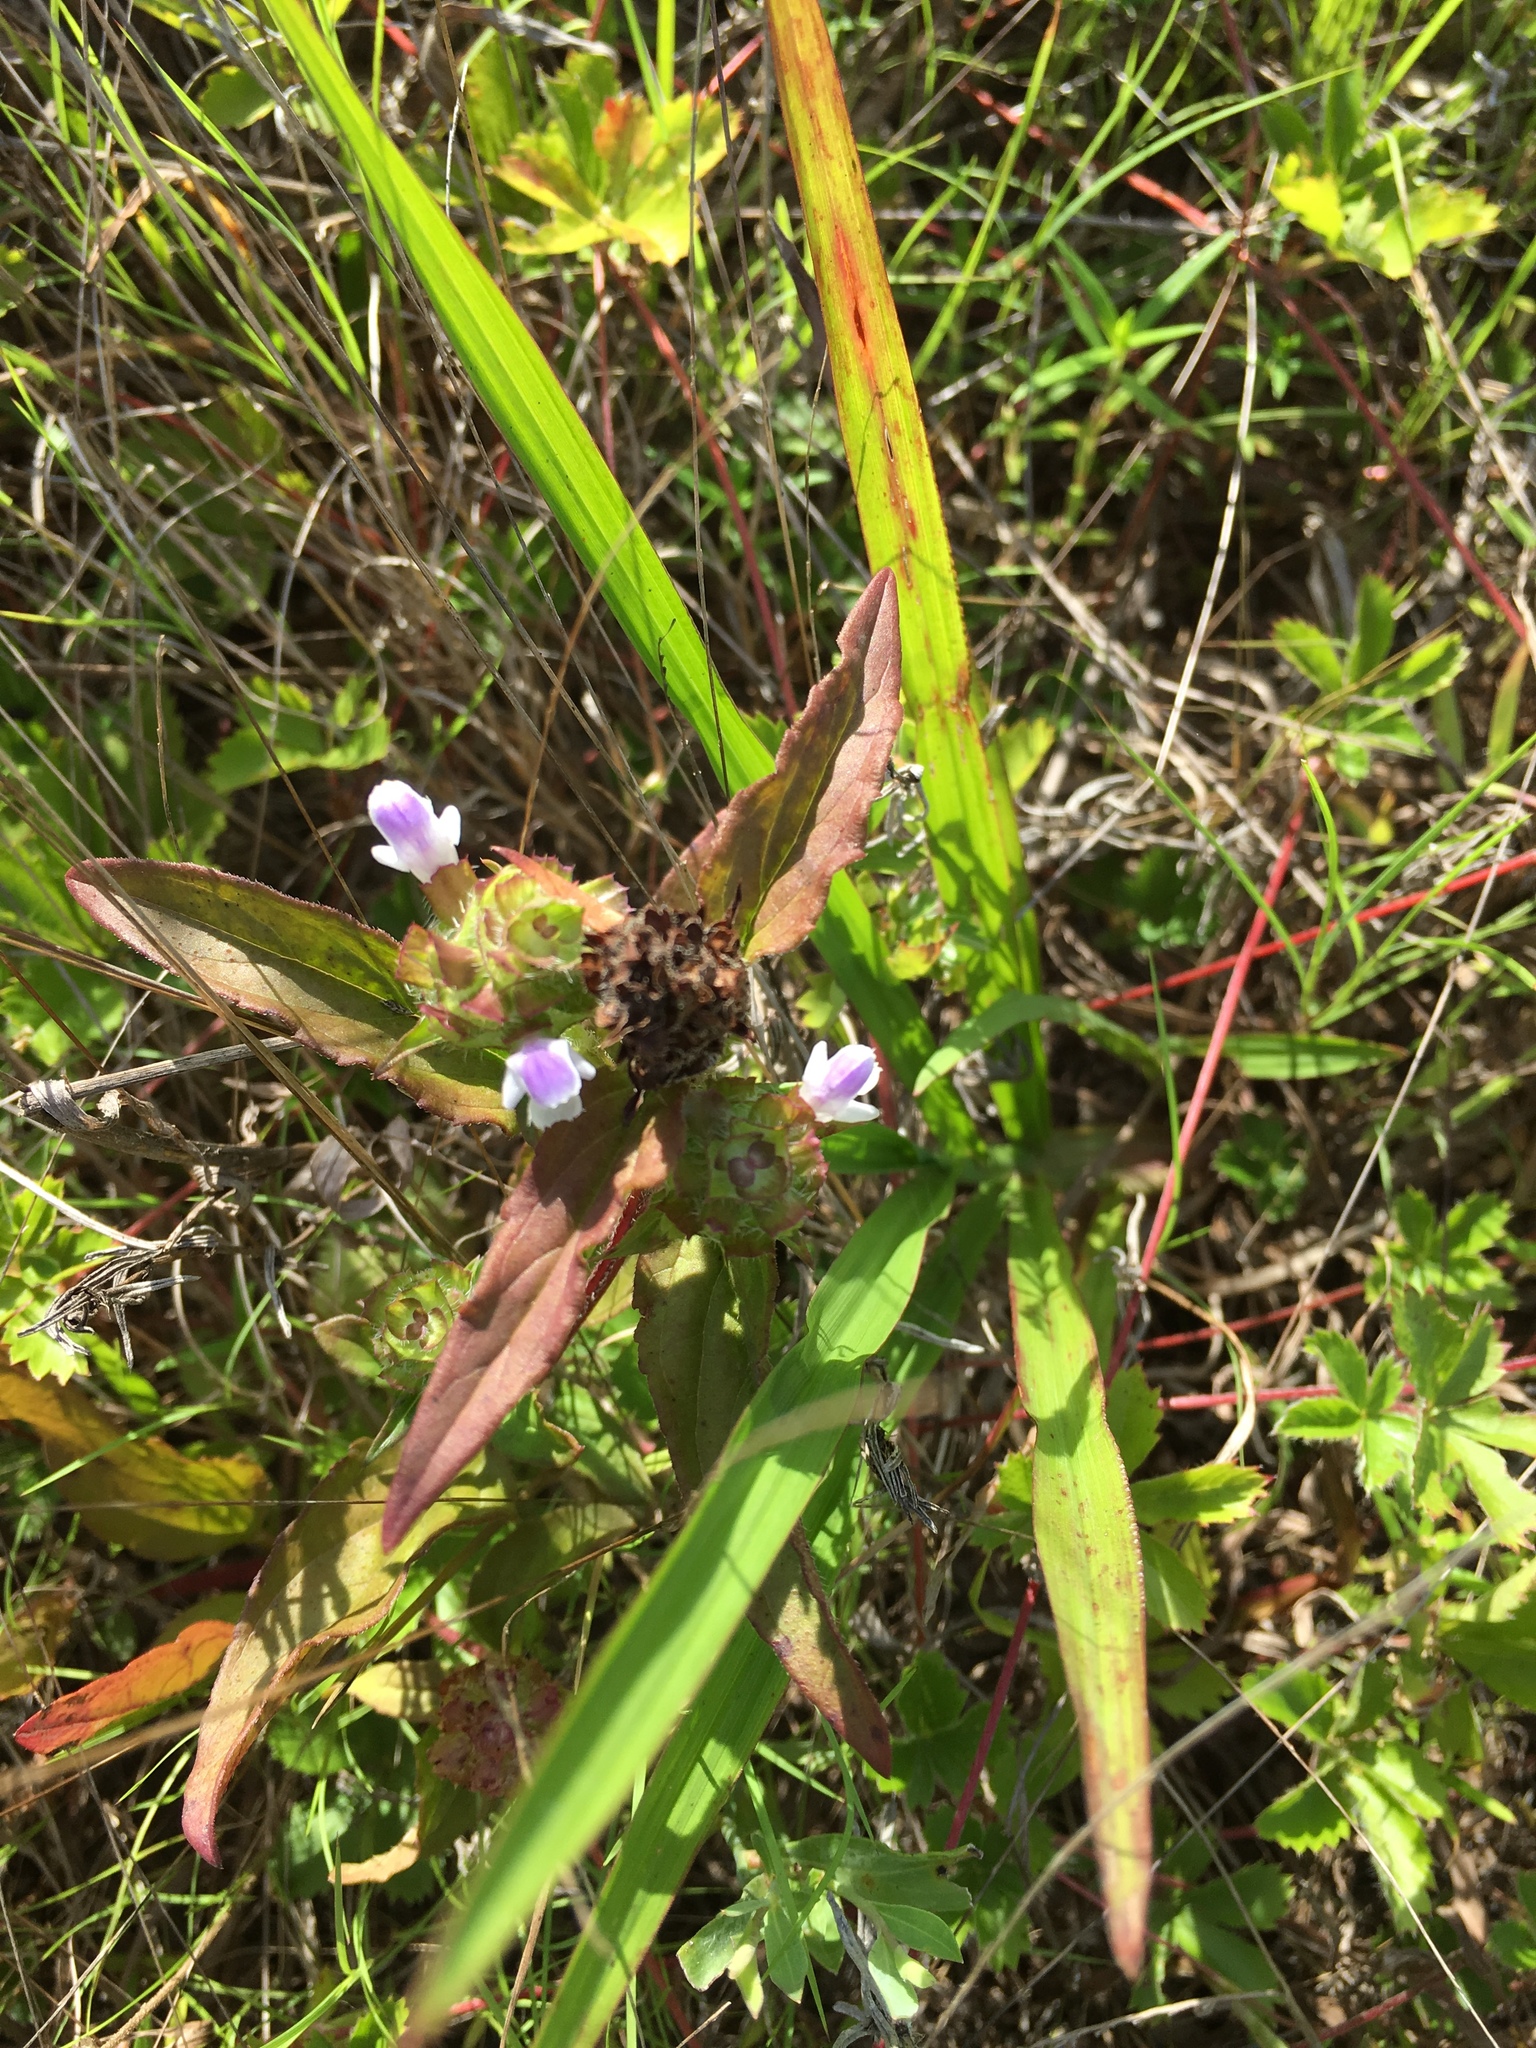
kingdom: Plantae
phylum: Tracheophyta
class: Magnoliopsida
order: Lamiales
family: Lamiaceae
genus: Prunella
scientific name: Prunella vulgaris
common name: Heal-all
